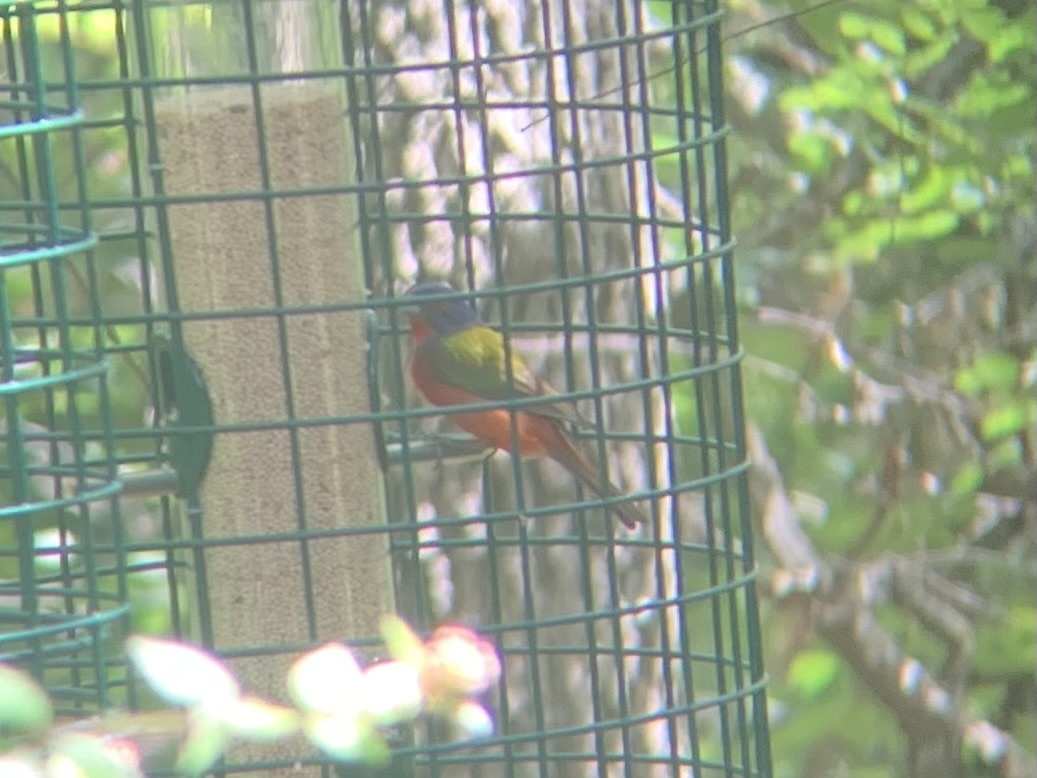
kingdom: Animalia
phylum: Chordata
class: Aves
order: Passeriformes
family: Cardinalidae
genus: Passerina
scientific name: Passerina ciris
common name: Painted bunting
